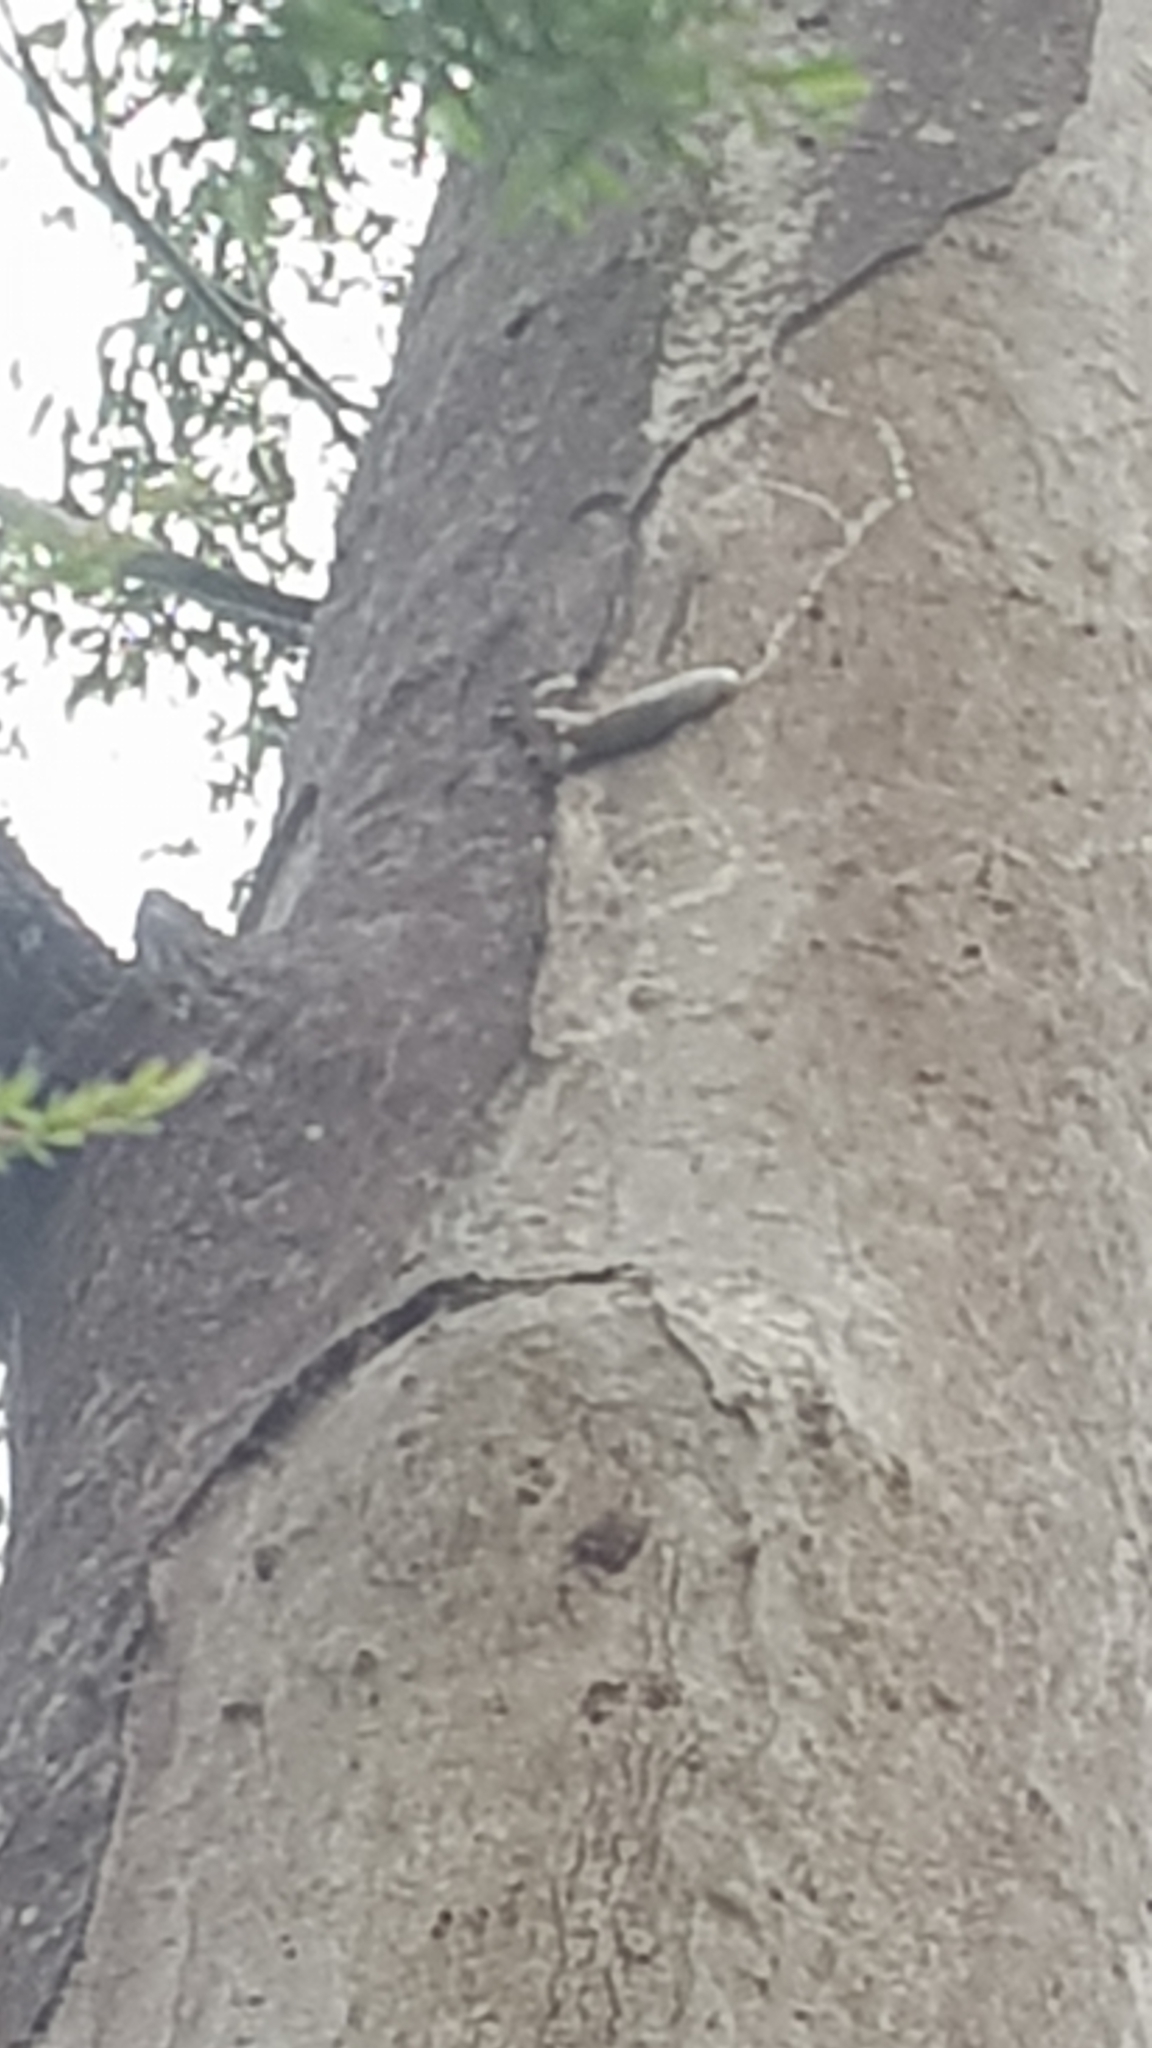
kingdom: Animalia
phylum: Mollusca
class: Gastropoda
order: Stylommatophora
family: Athoracophoridae
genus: Triboniophorus
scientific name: Triboniophorus graeffei
